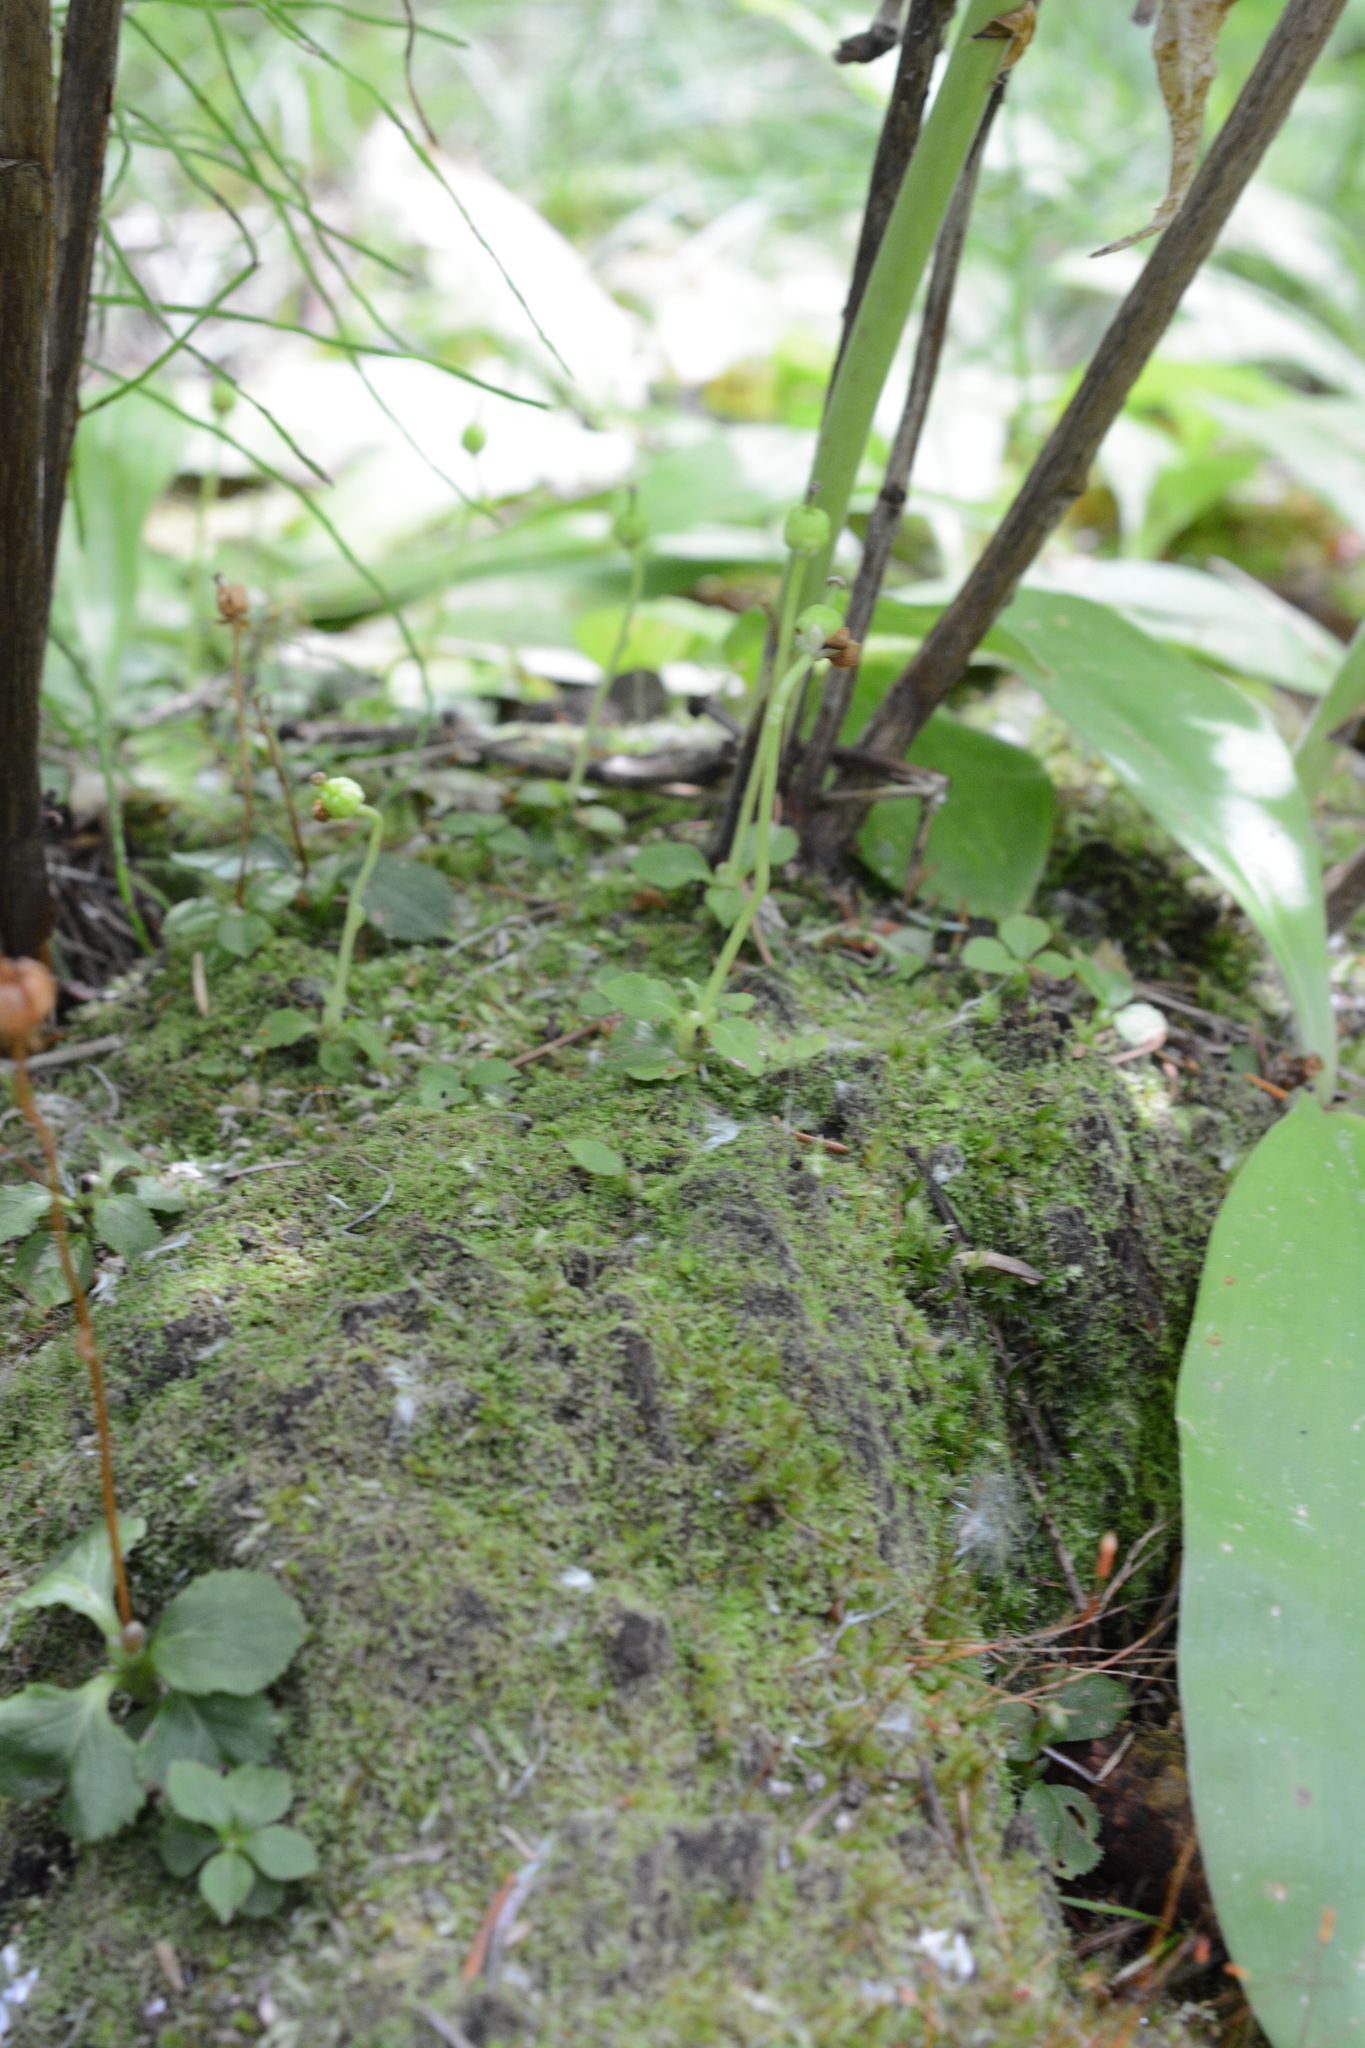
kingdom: Plantae
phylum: Tracheophyta
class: Magnoliopsida
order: Ericales
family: Ericaceae
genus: Moneses
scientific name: Moneses uniflora
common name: One-flowered wintergreen
